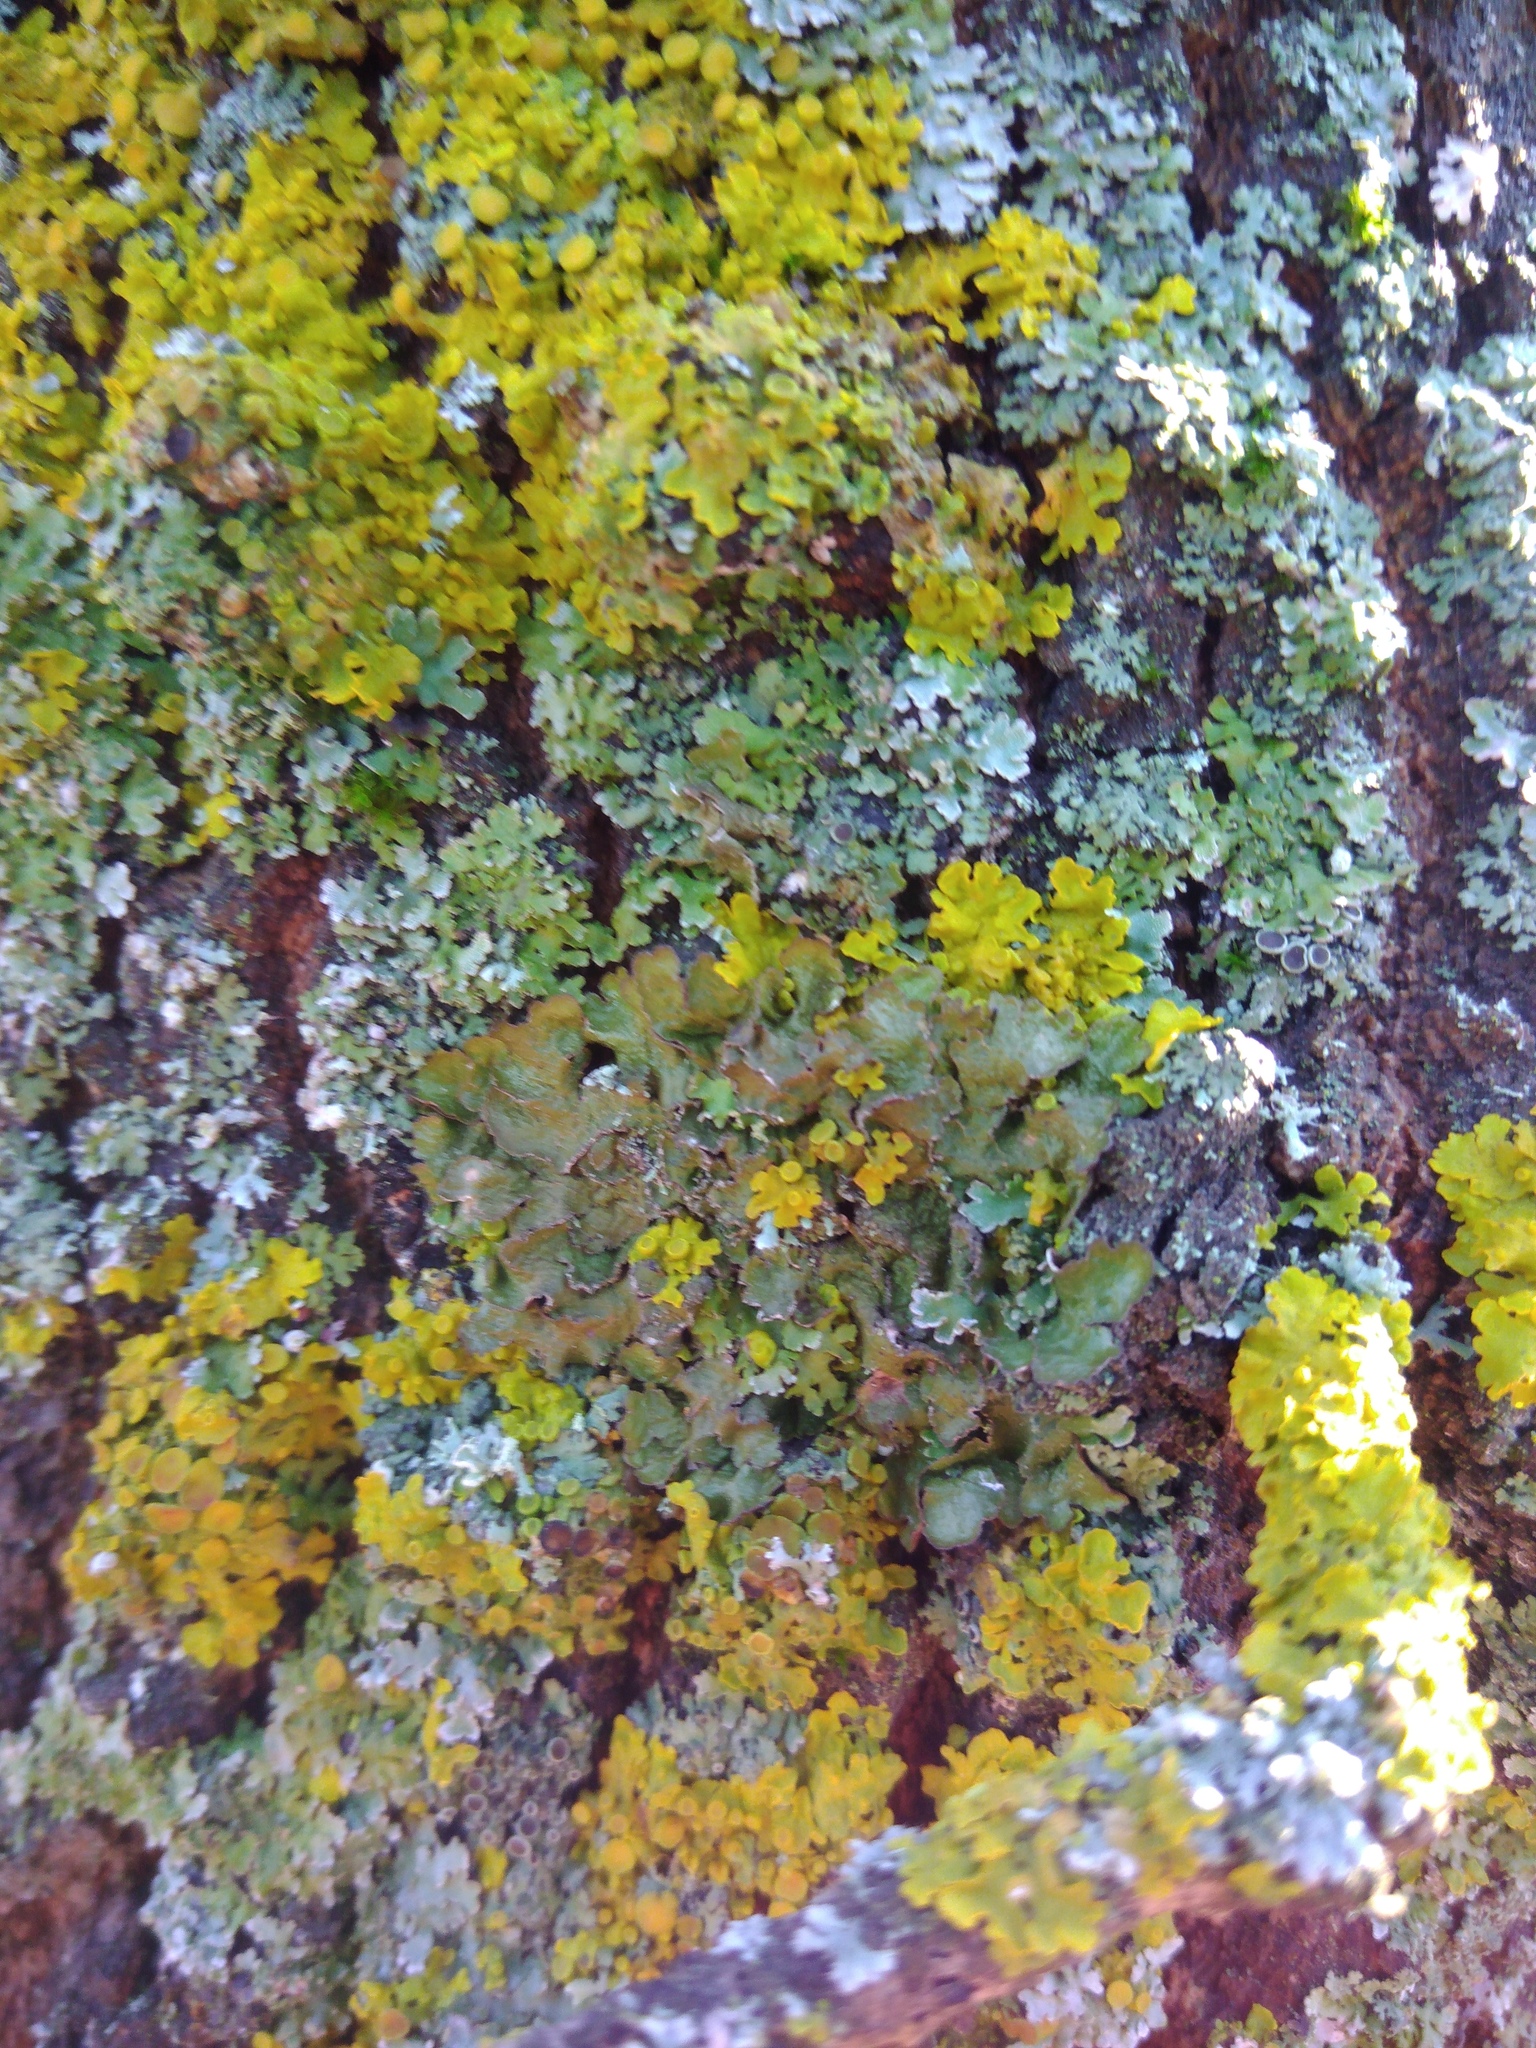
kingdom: Fungi
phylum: Ascomycota
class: Lecanoromycetes
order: Lecanorales
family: Parmeliaceae
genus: Melanelixia
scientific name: Melanelixia subargentifera
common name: Whiskered camouflage lichen
